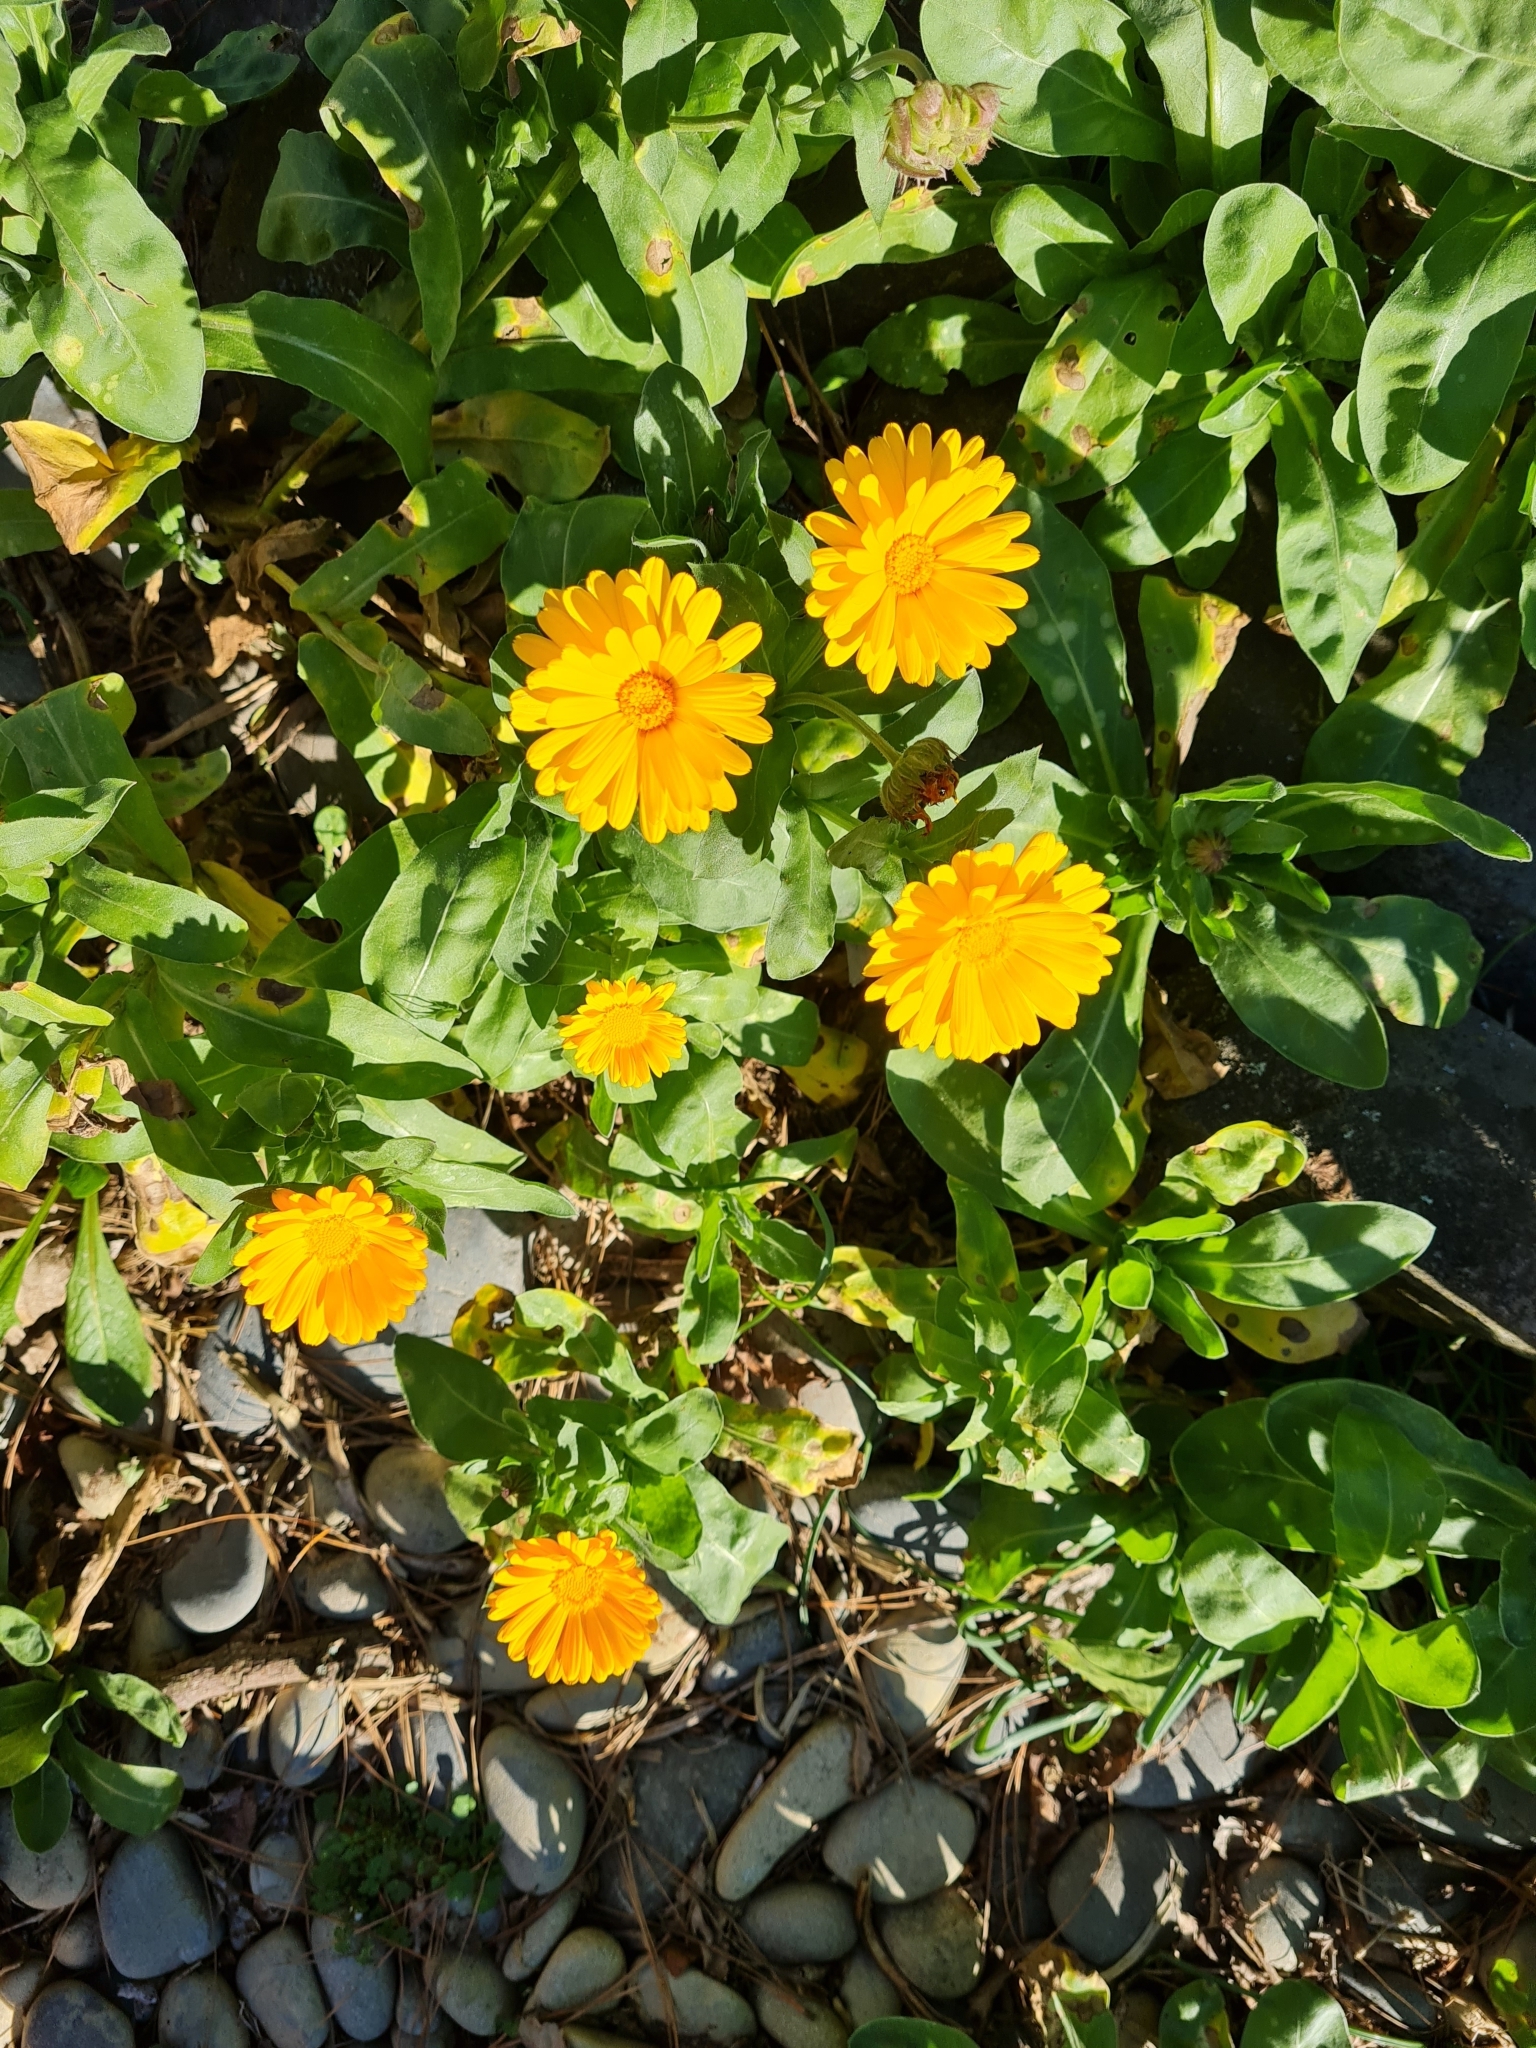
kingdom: Plantae
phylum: Tracheophyta
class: Magnoliopsida
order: Asterales
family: Asteraceae
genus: Calendula
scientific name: Calendula officinalis
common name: Pot marigold
